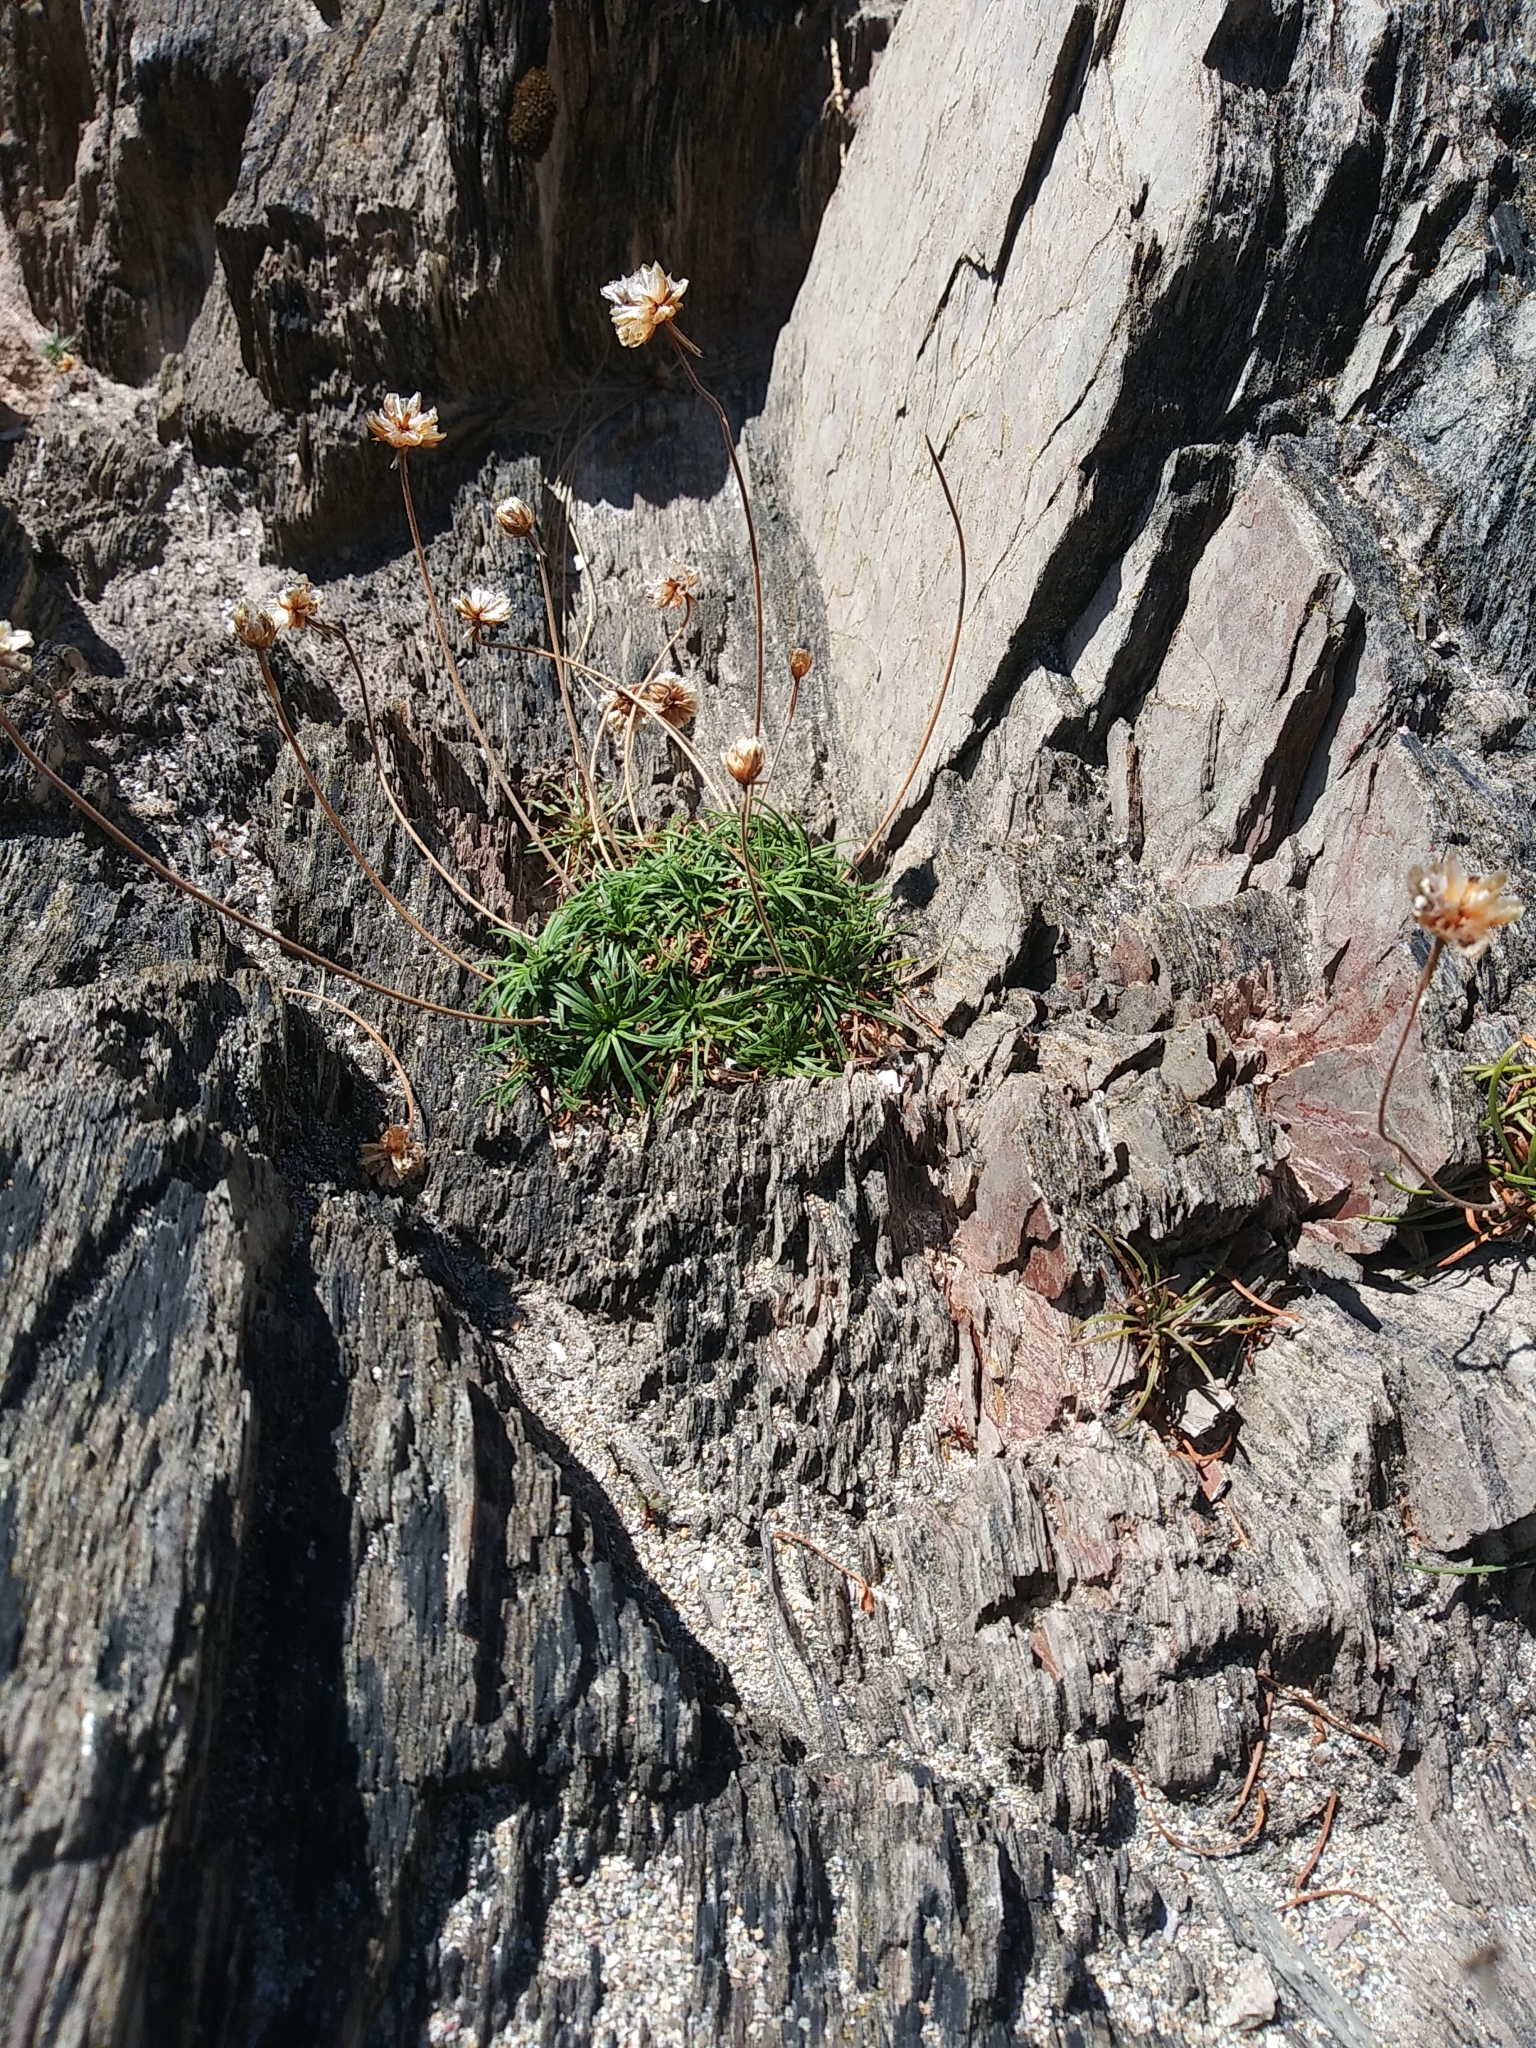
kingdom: Plantae
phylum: Tracheophyta
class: Magnoliopsida
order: Caryophyllales
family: Plumbaginaceae
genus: Armeria
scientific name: Armeria maritima
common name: Thrift
